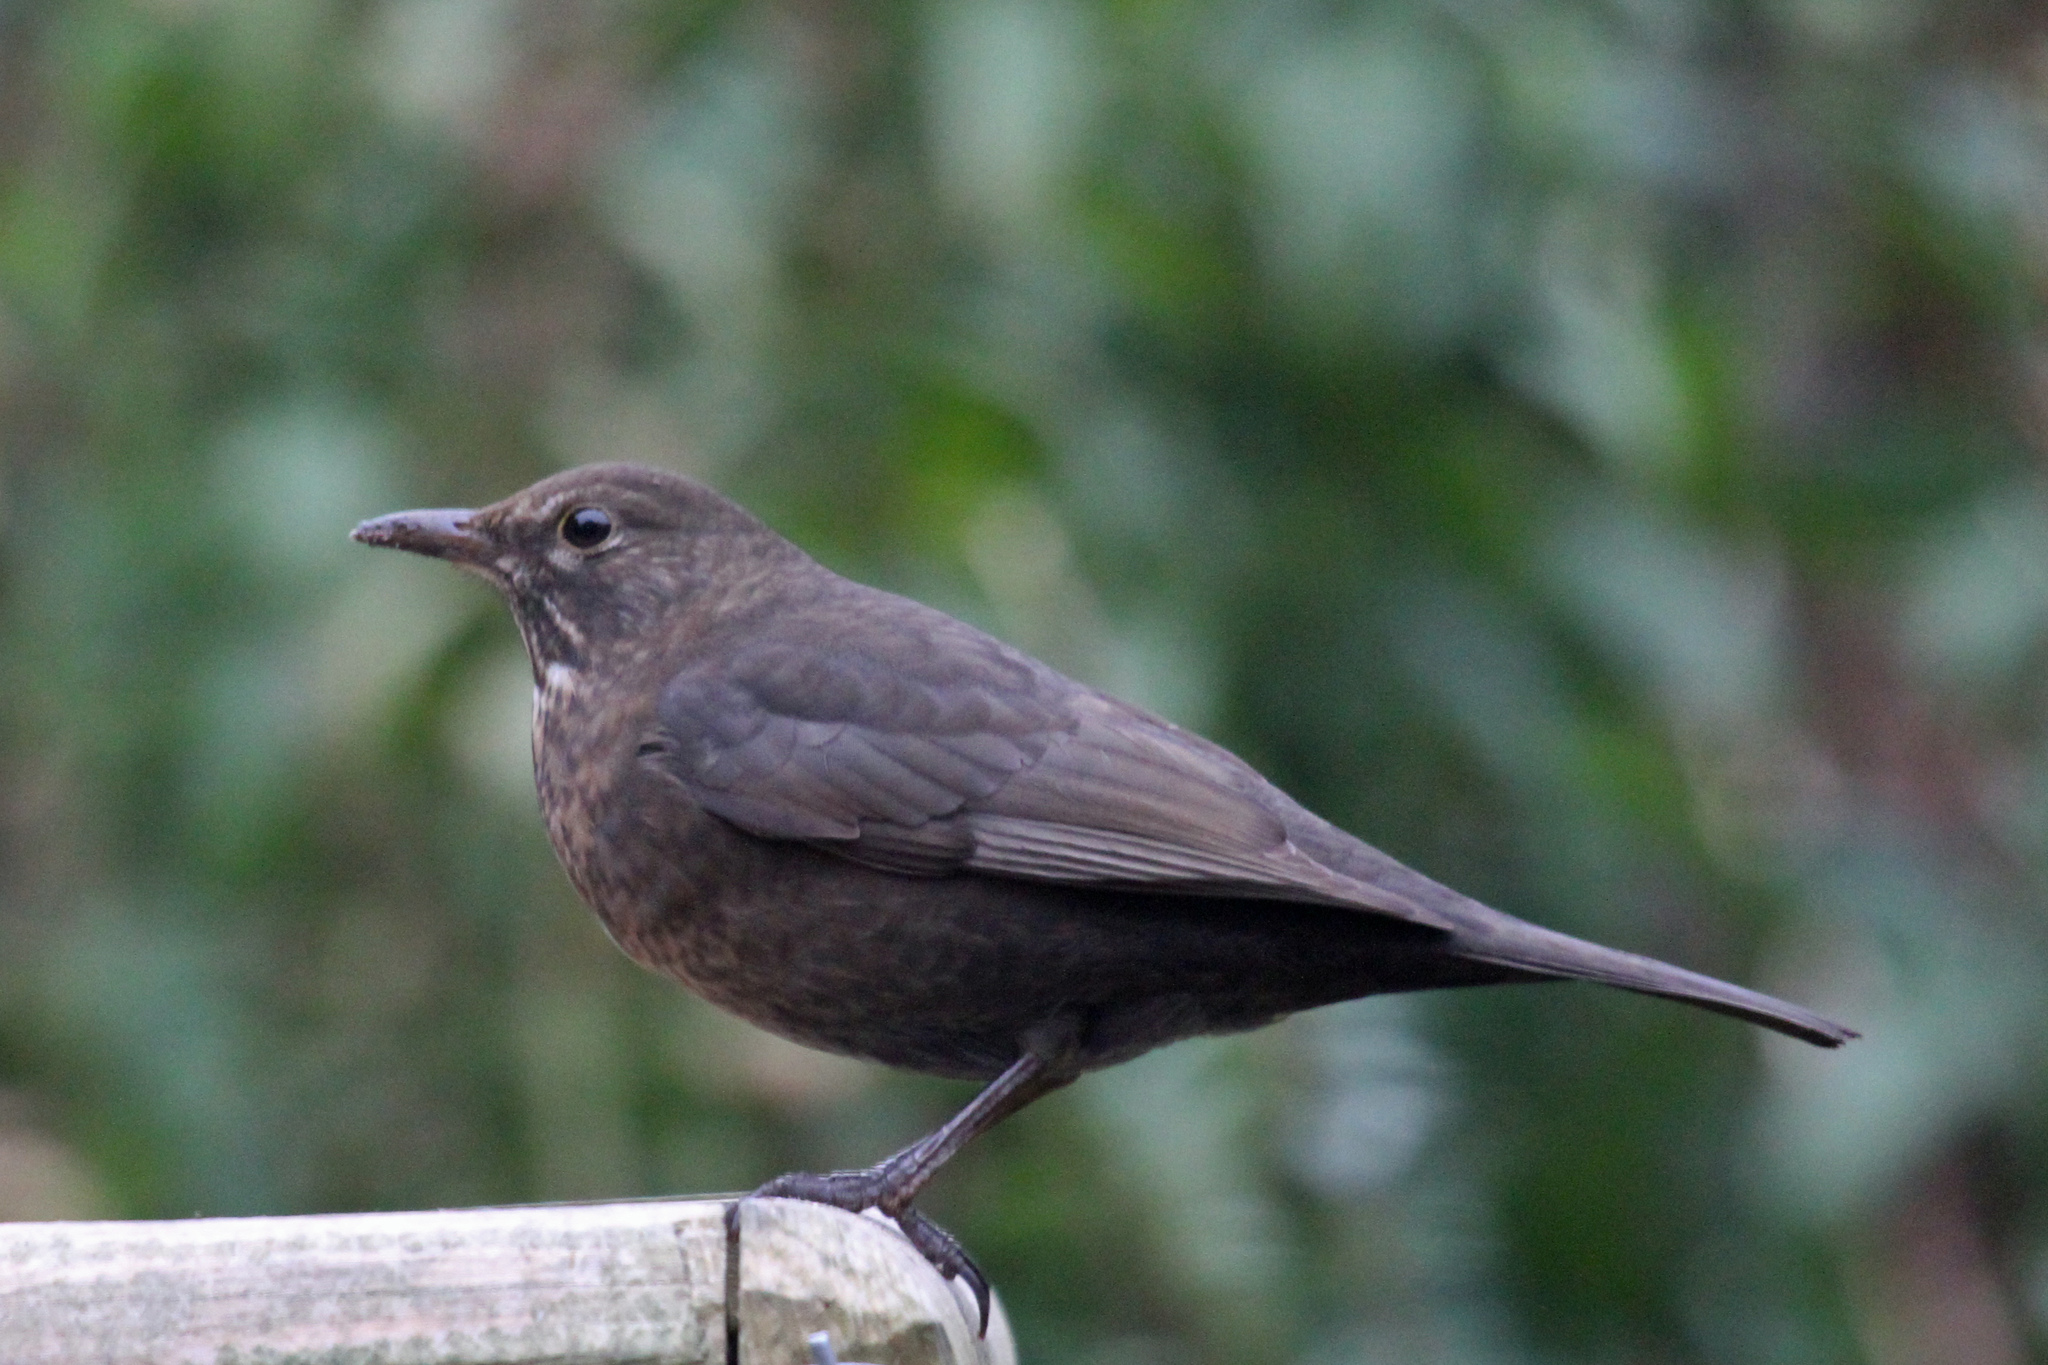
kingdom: Animalia
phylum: Chordata
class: Aves
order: Passeriformes
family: Turdidae
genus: Turdus
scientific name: Turdus merula
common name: Common blackbird
